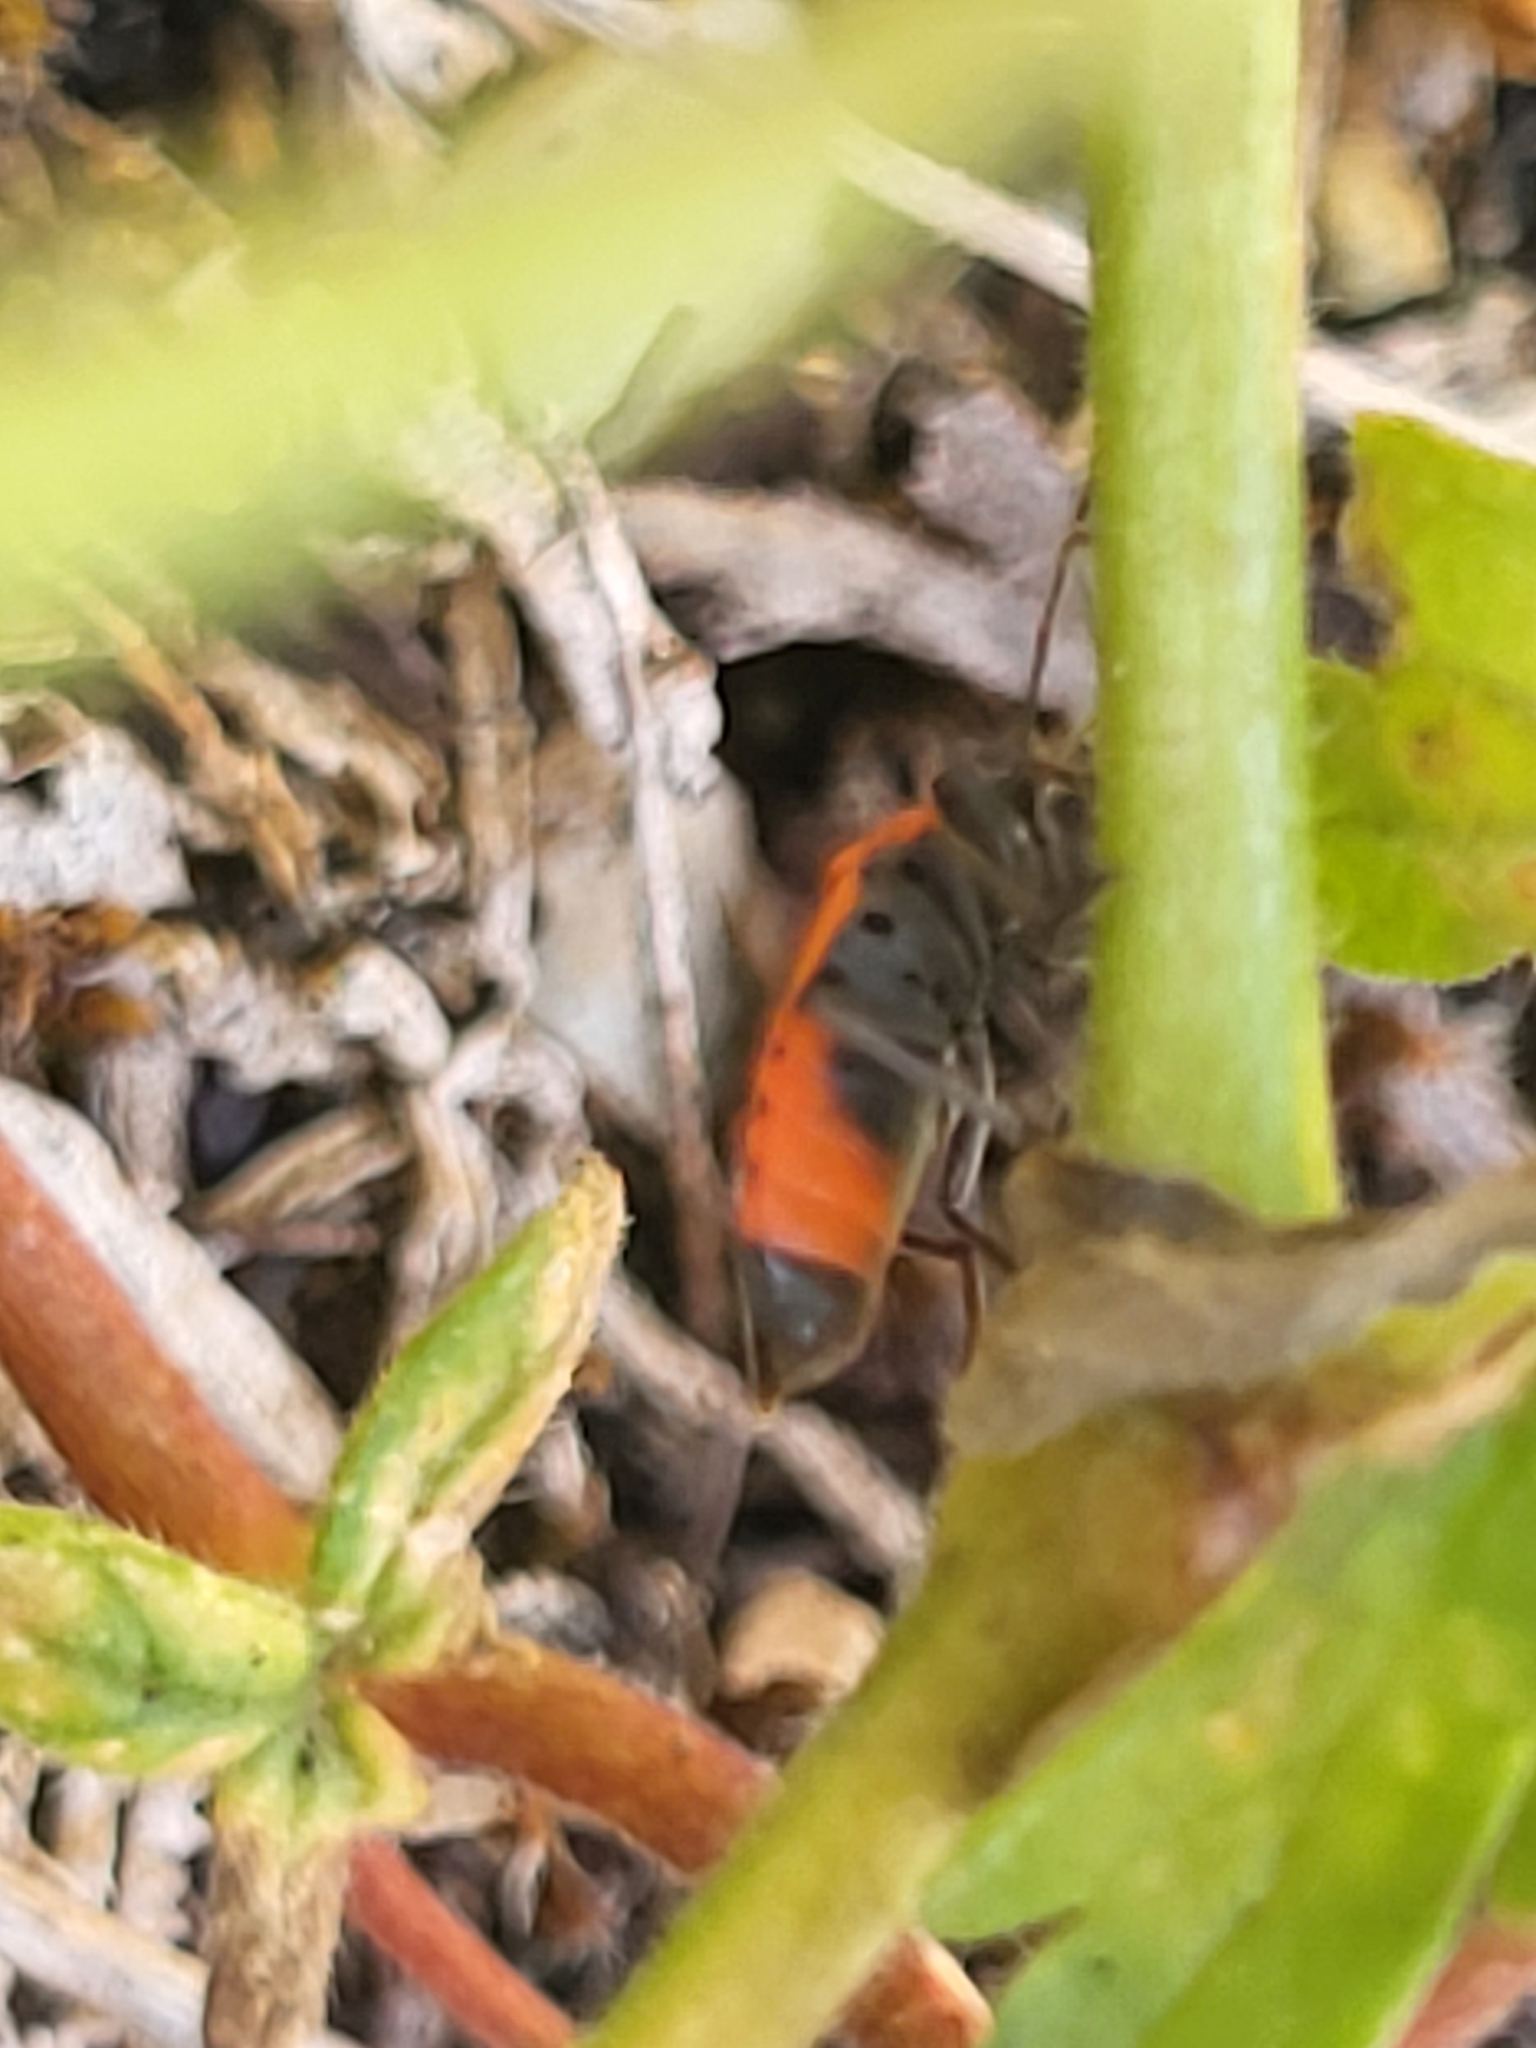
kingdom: Animalia
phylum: Arthropoda
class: Insecta
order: Hemiptera
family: Lygaeidae
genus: Melanocoryphus
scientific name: Melanocoryphus albomaculatus
